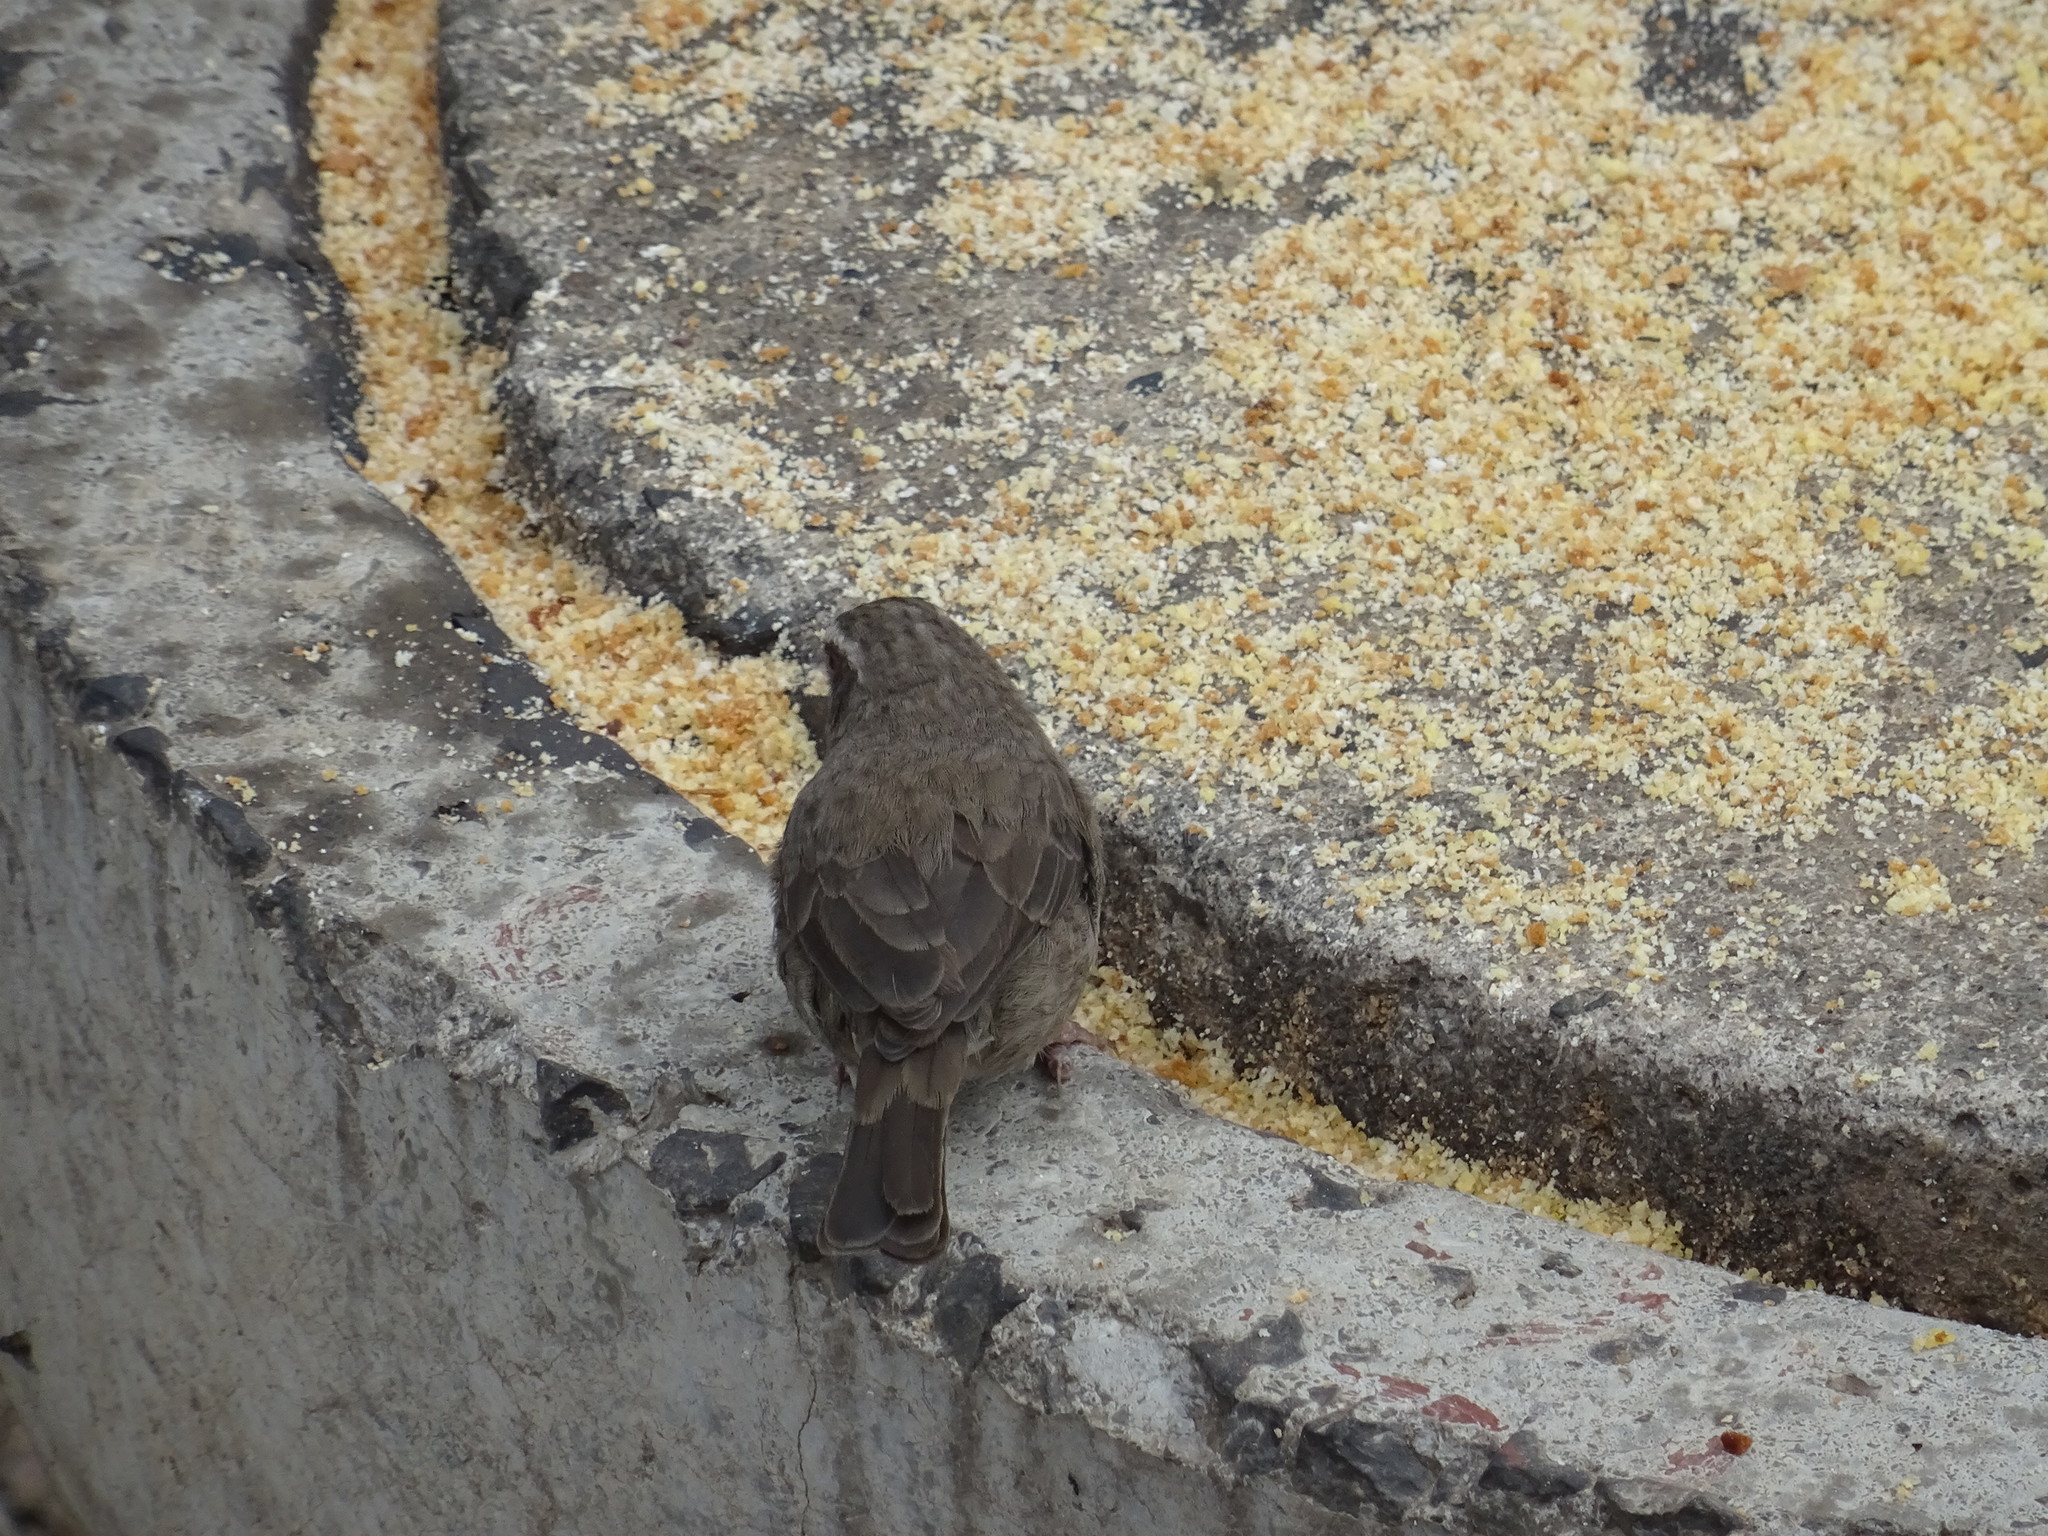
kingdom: Animalia
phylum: Chordata
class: Aves
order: Passeriformes
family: Fringillidae
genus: Crithagra
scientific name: Crithagra tristriata
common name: Brown-rumped seedeater
